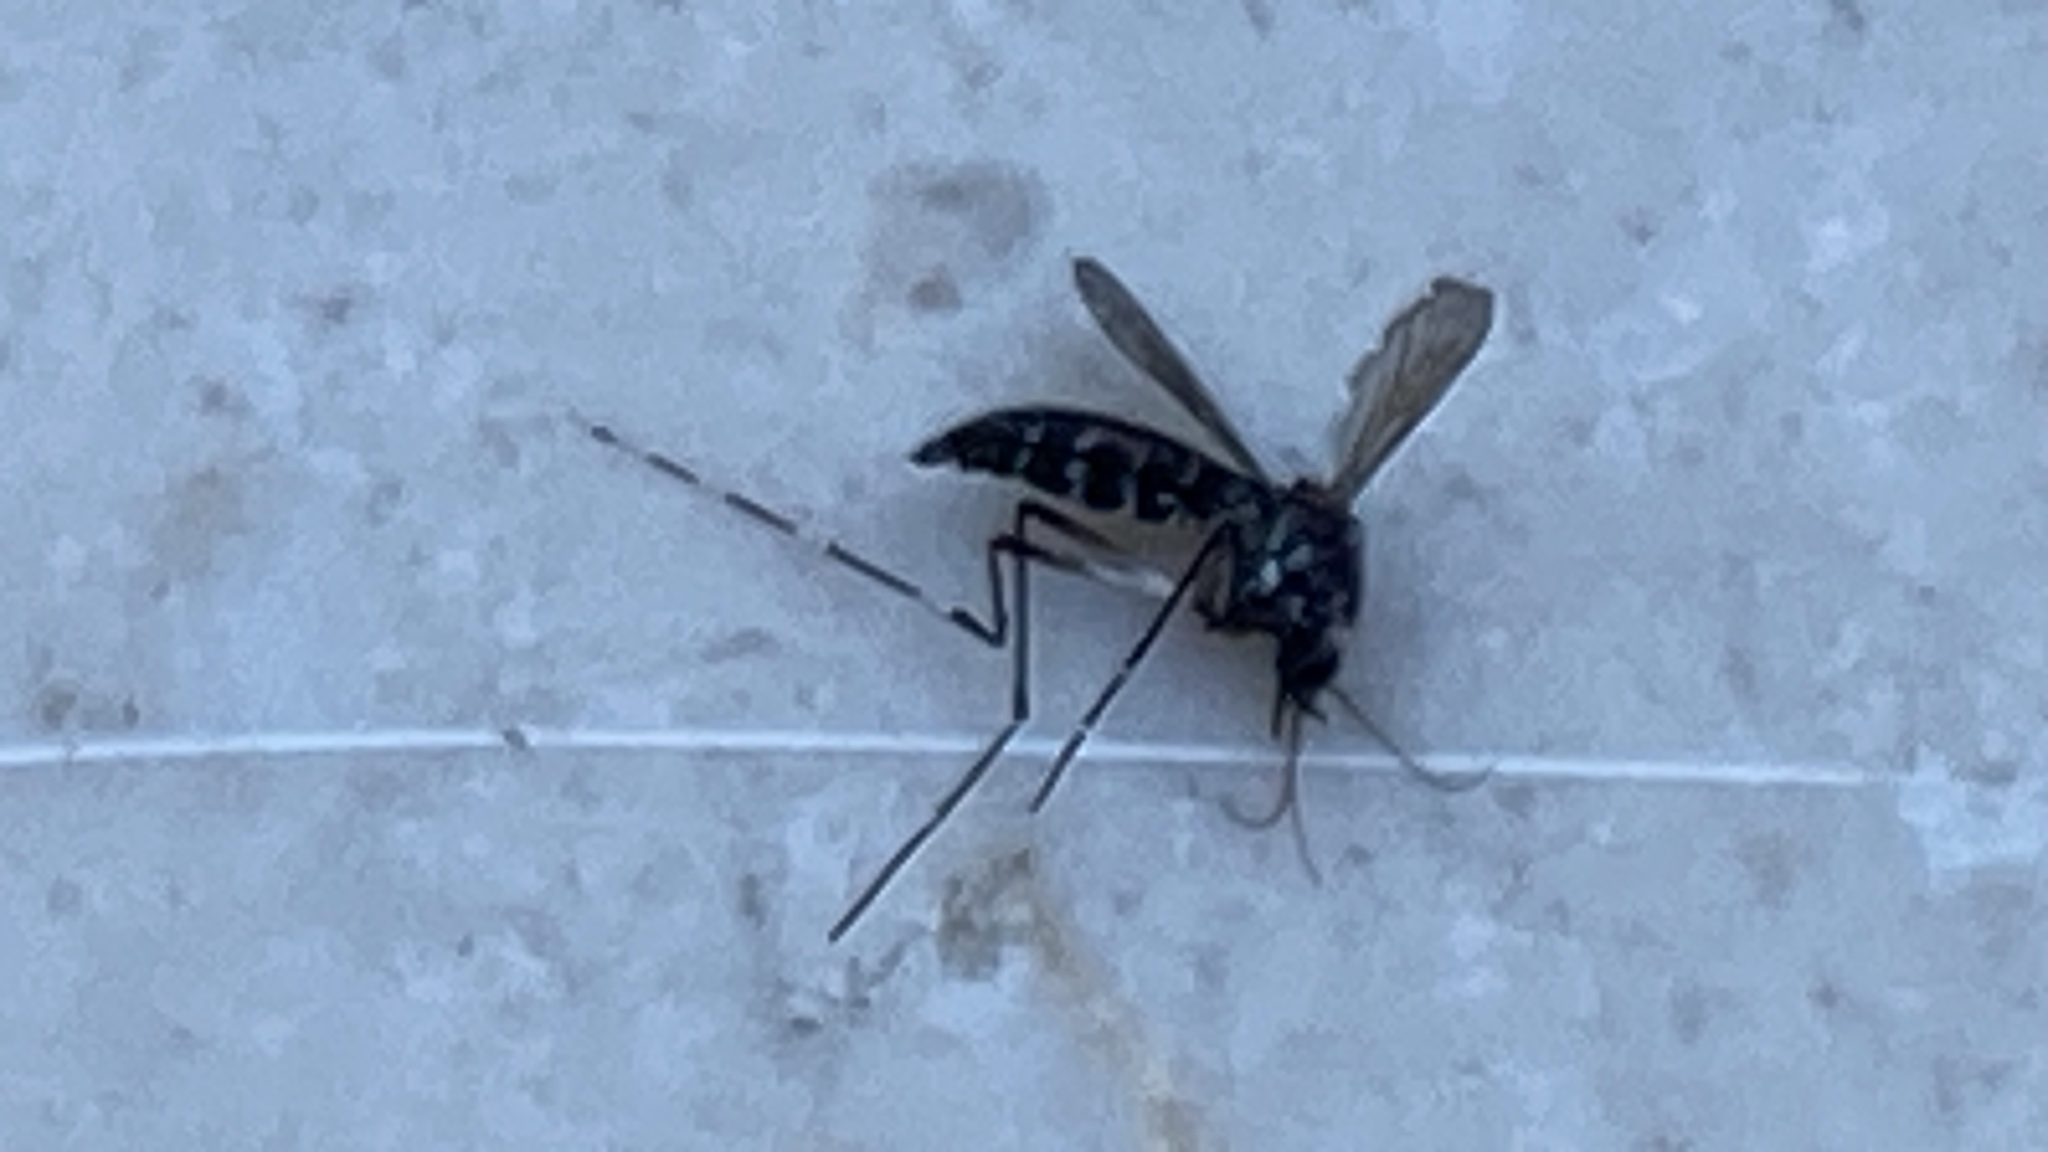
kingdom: Animalia
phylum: Arthropoda
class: Insecta
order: Diptera
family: Culicidae
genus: Aedes
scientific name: Aedes albopictus
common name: Tiger mosquito
